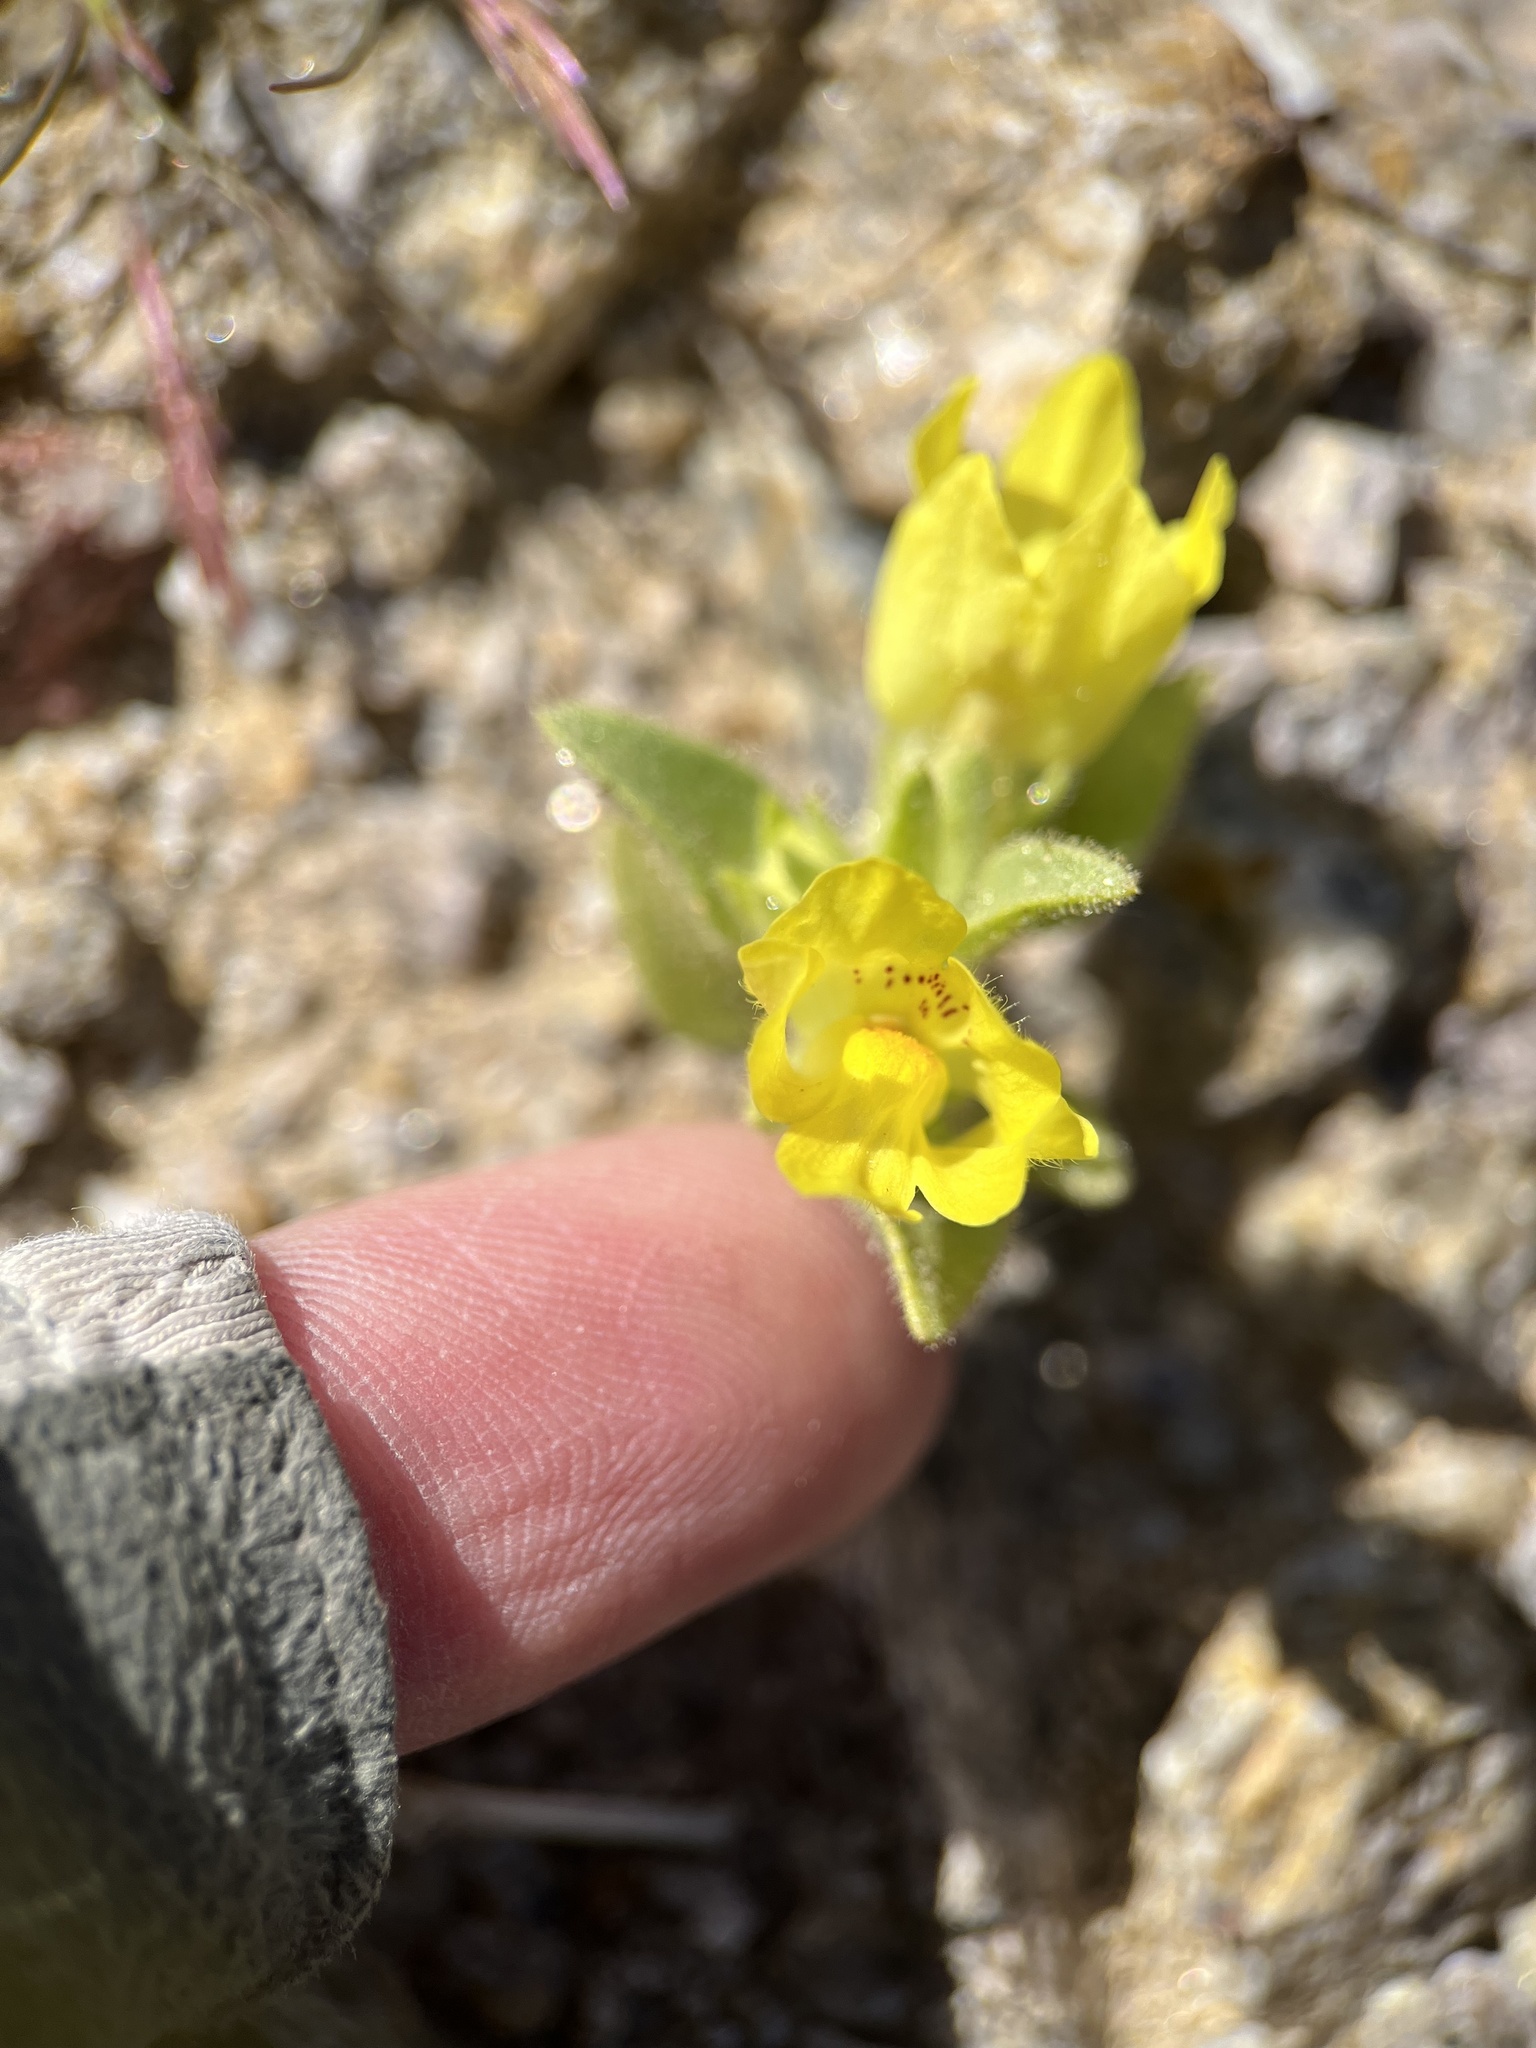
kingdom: Plantae
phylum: Tracheophyta
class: Magnoliopsida
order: Lamiales
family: Plantaginaceae
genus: Mohavea
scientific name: Mohavea breviflora
